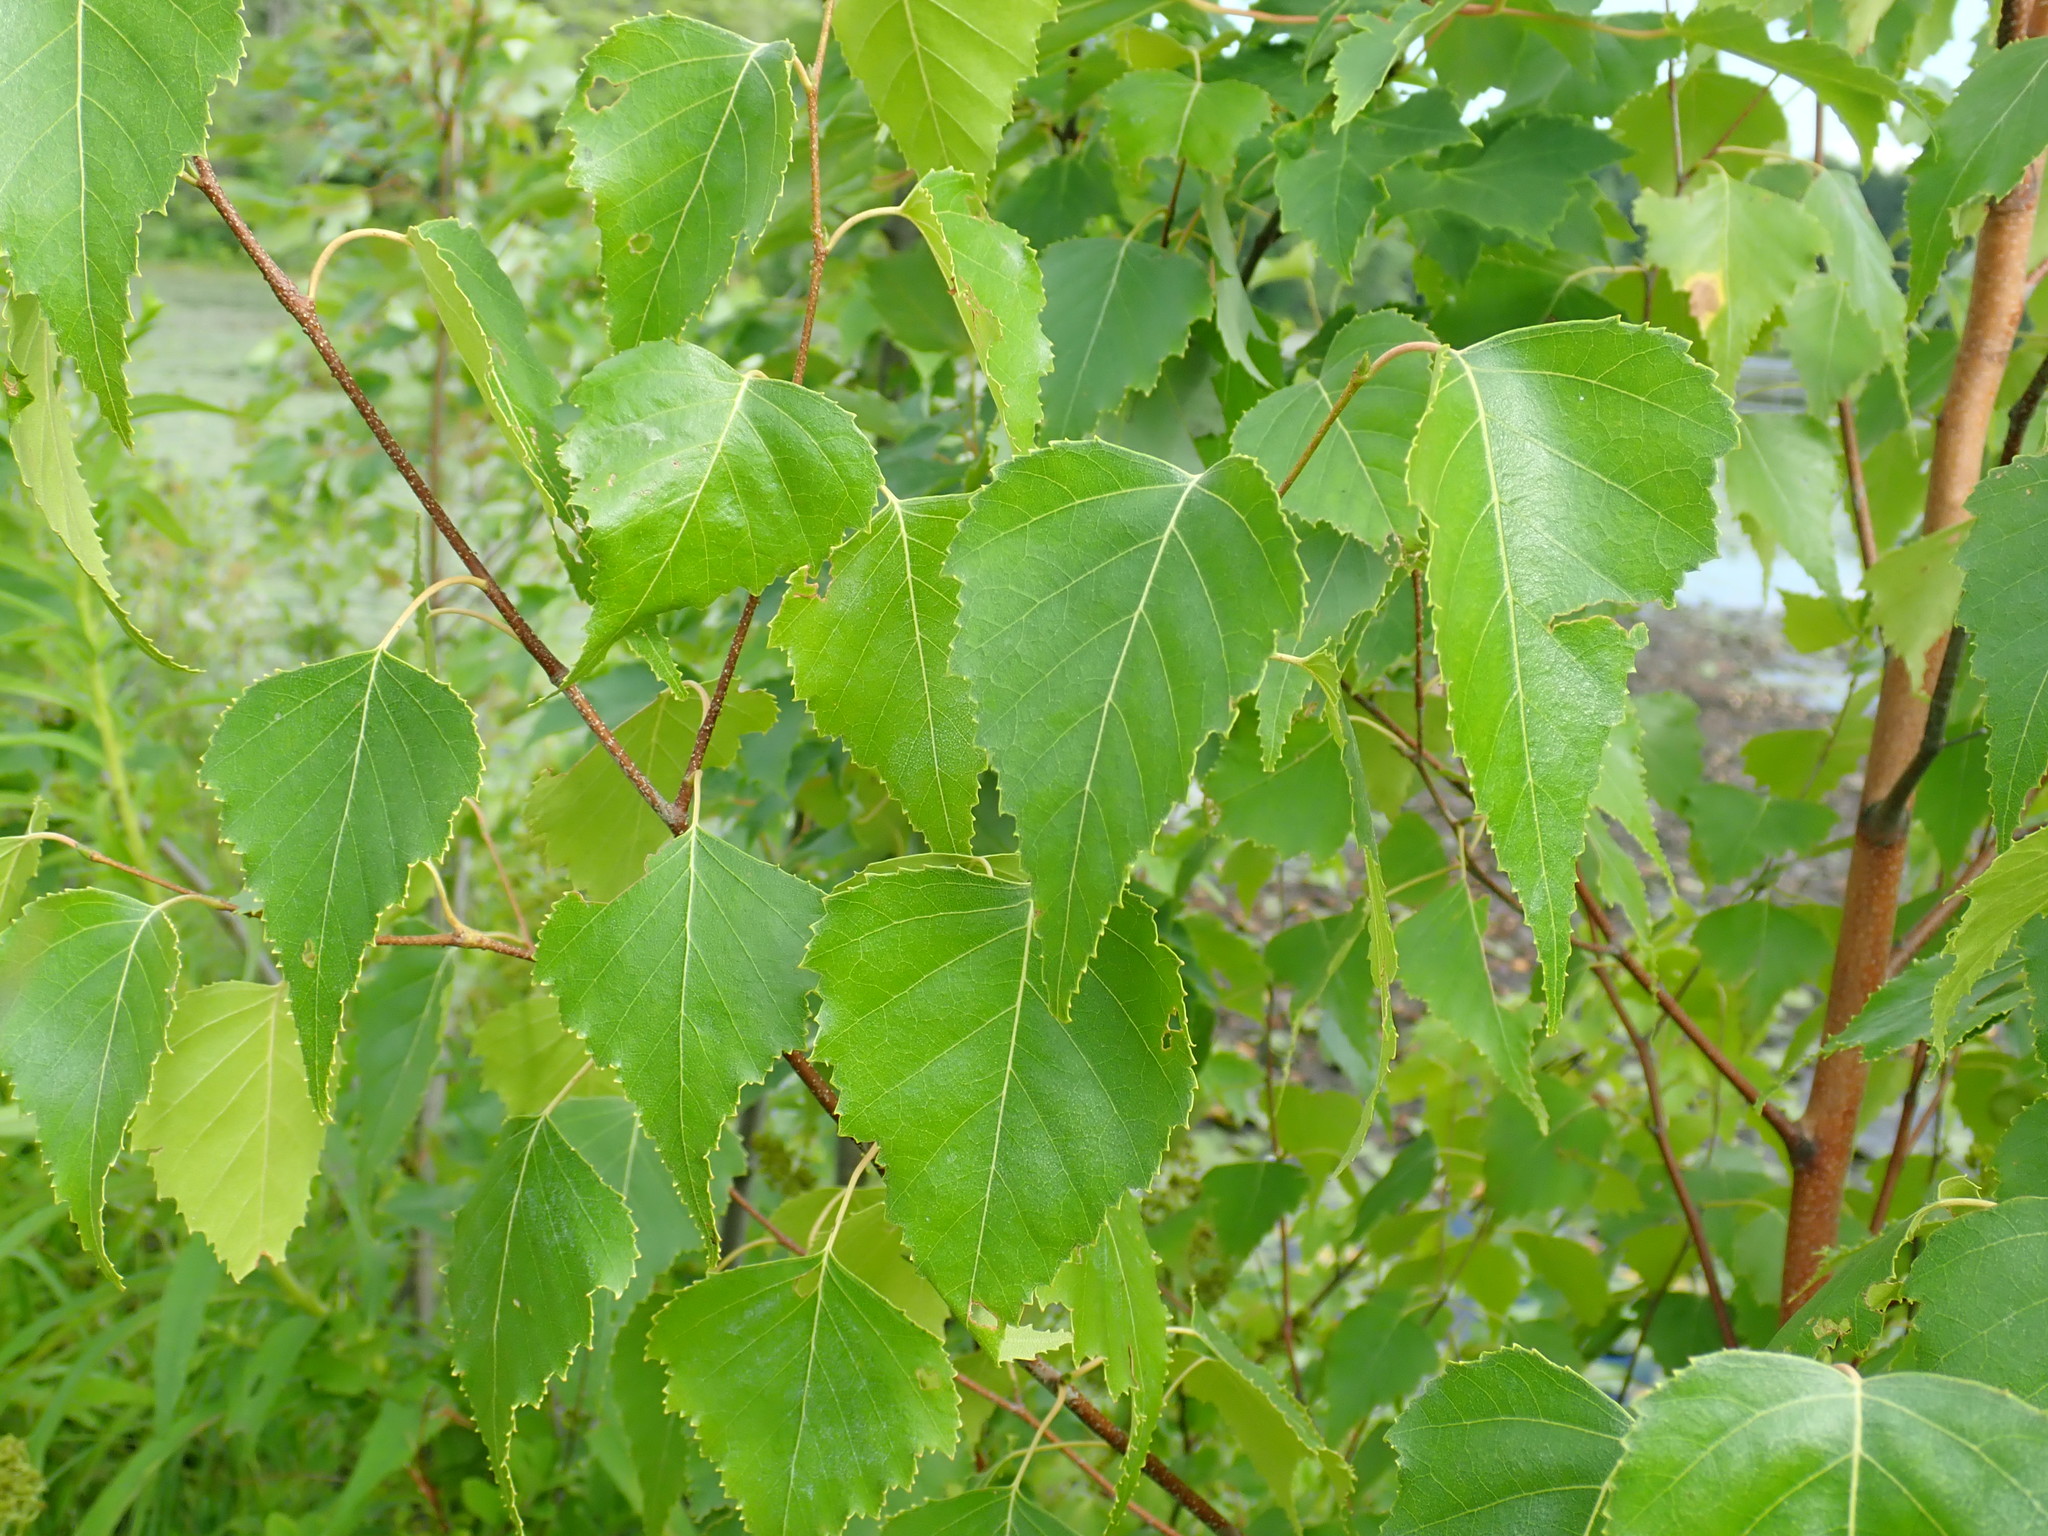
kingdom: Plantae
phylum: Tracheophyta
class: Magnoliopsida
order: Fagales
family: Betulaceae
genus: Betula
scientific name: Betula populifolia
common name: Fire birch
